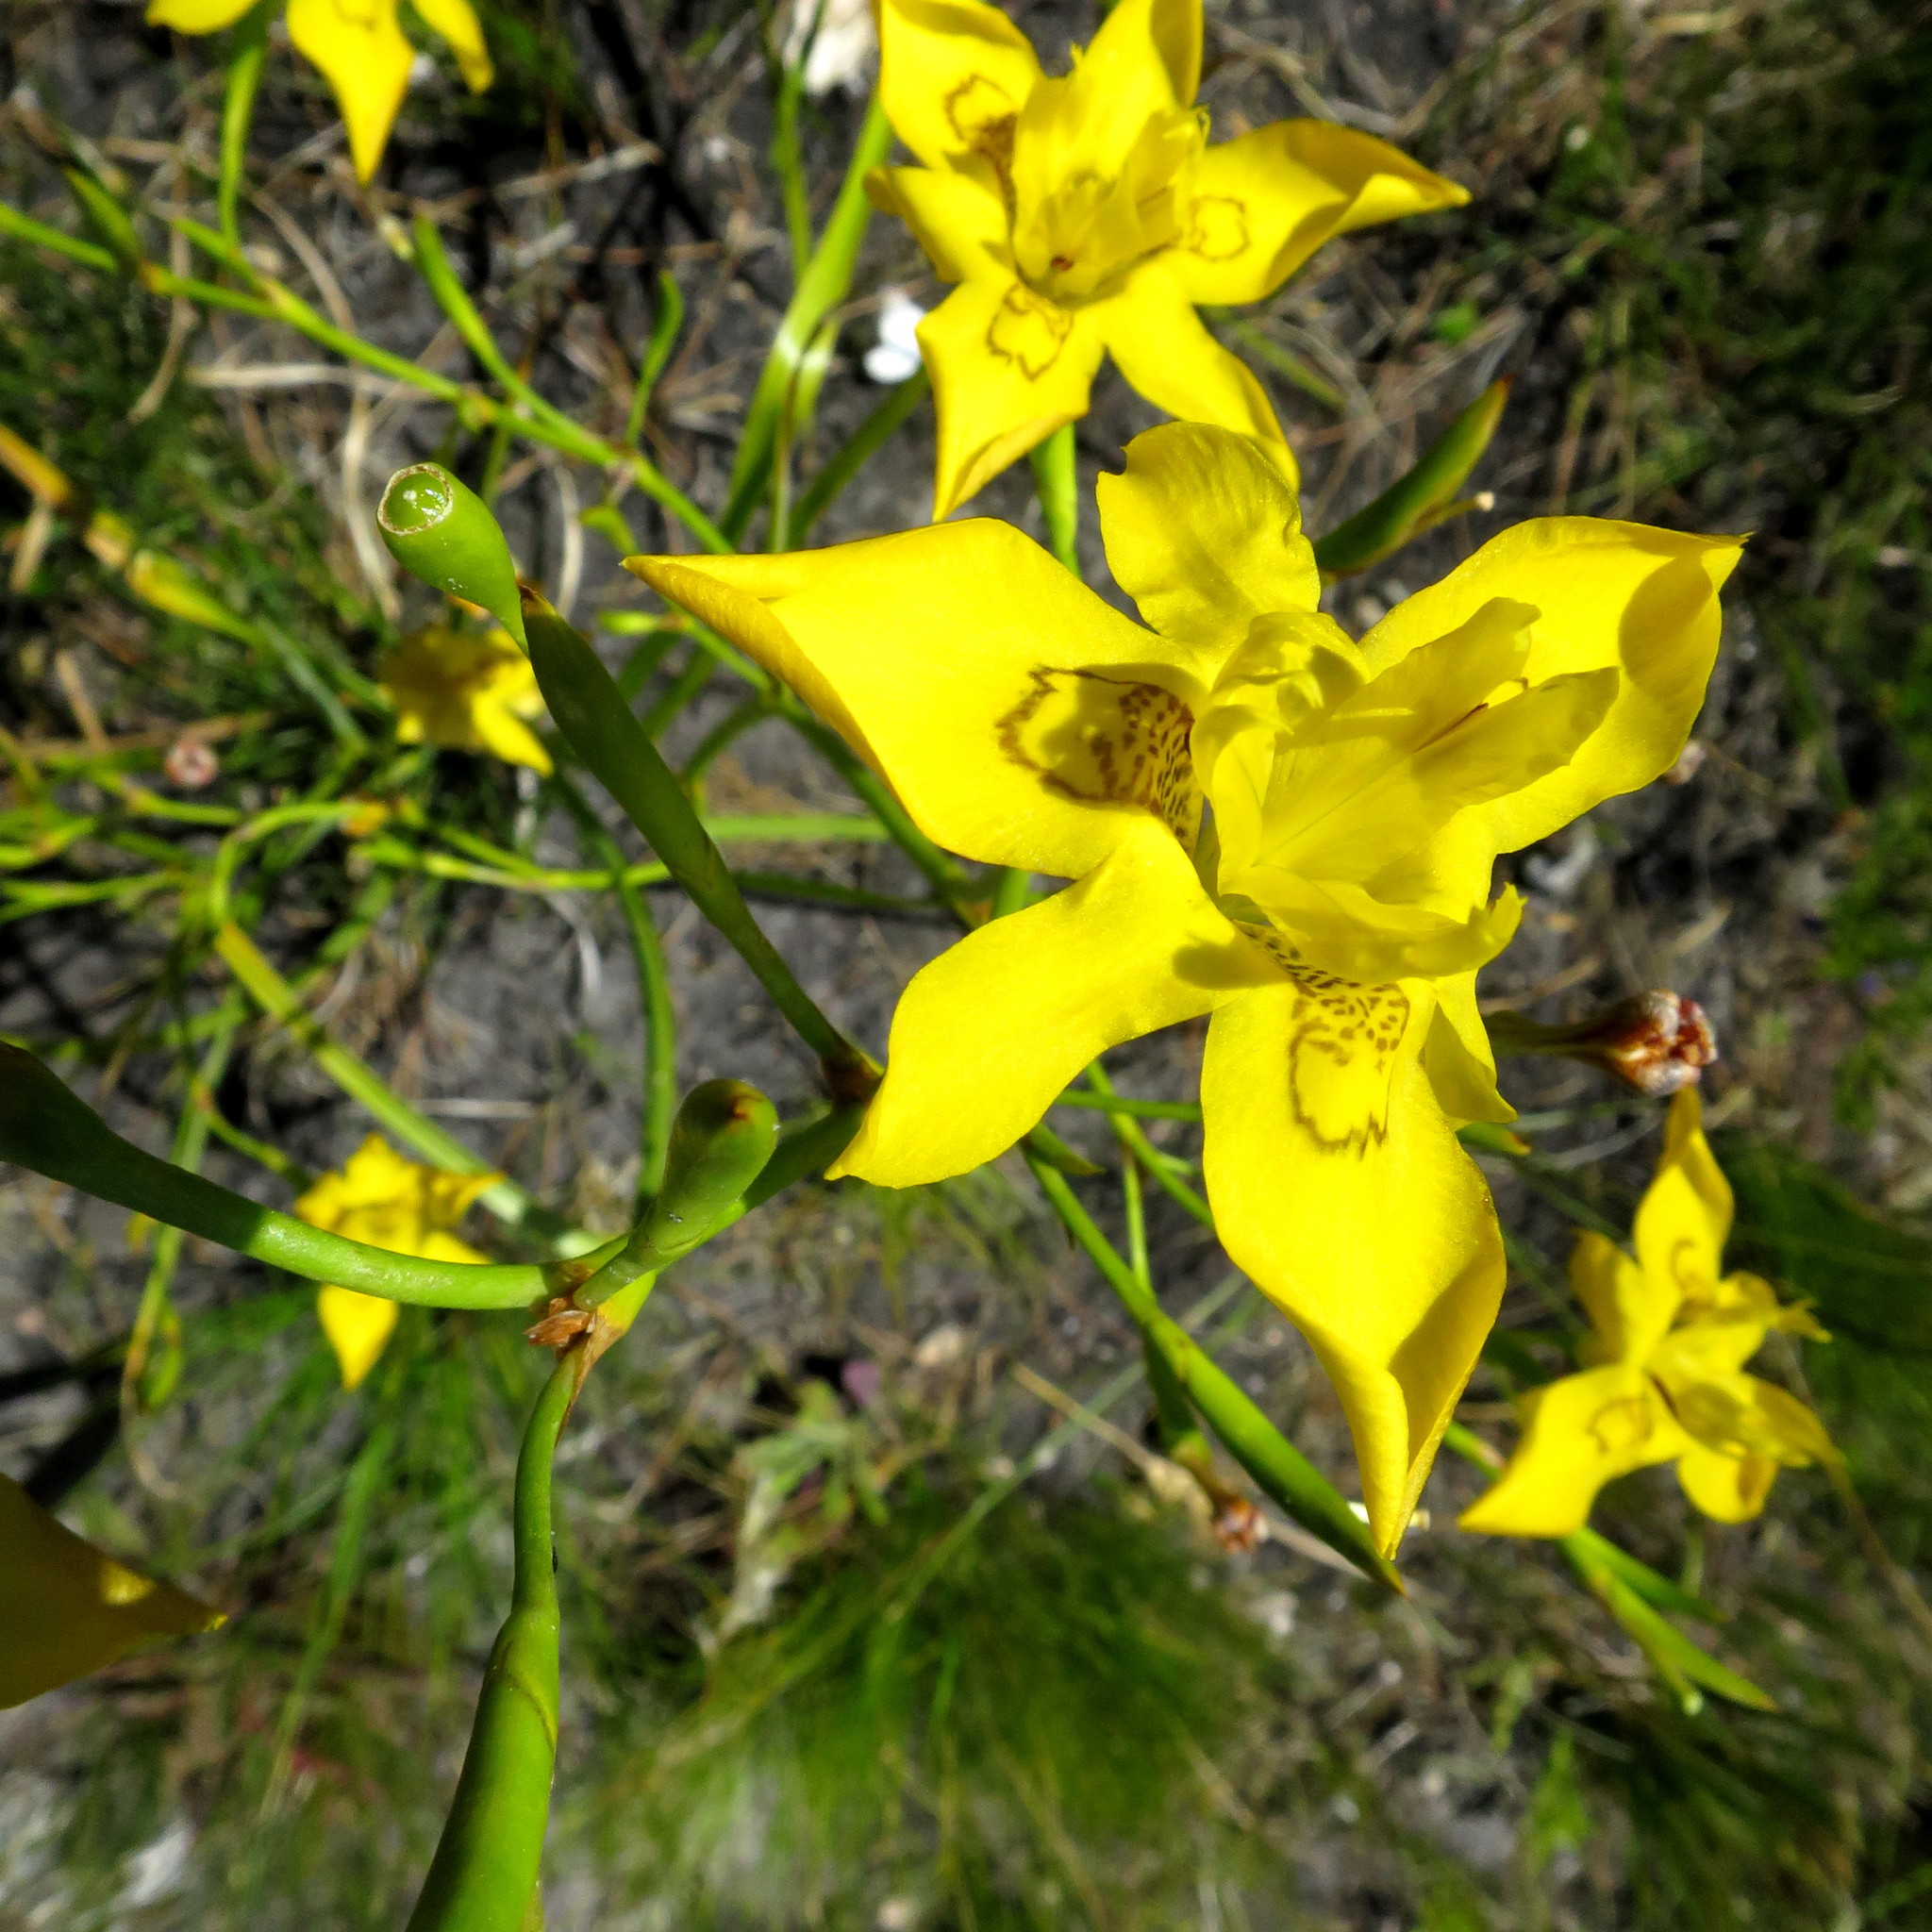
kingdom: Plantae
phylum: Tracheophyta
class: Liliopsida
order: Asparagales
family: Iridaceae
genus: Moraea
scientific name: Moraea ramosissima
